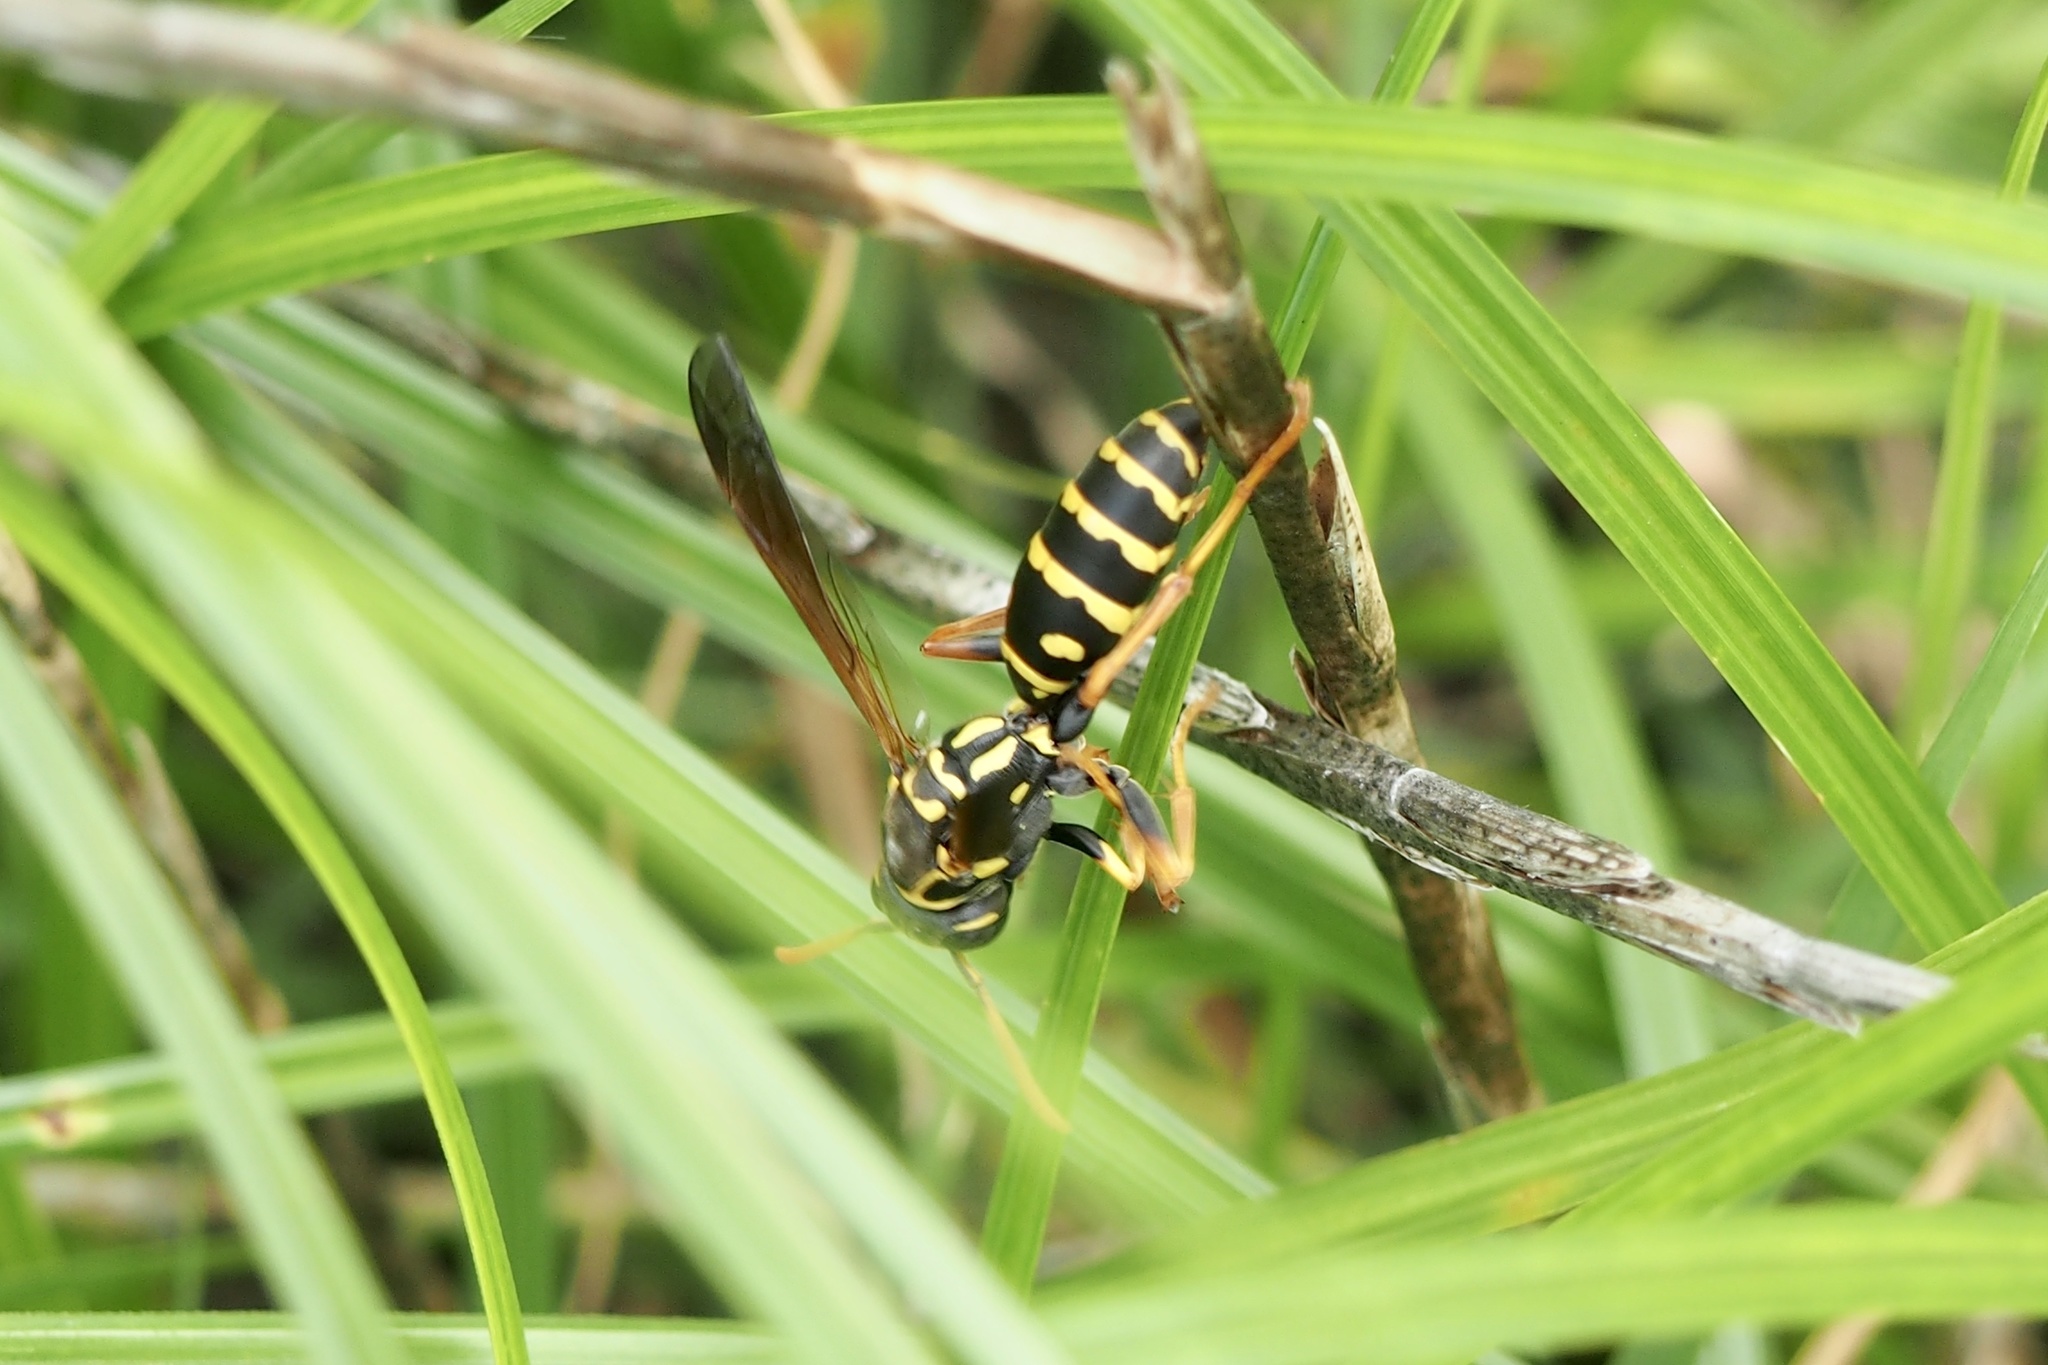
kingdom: Animalia
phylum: Arthropoda
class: Insecta
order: Hymenoptera
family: Eumenidae
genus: Polistes
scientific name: Polistes chinensis
